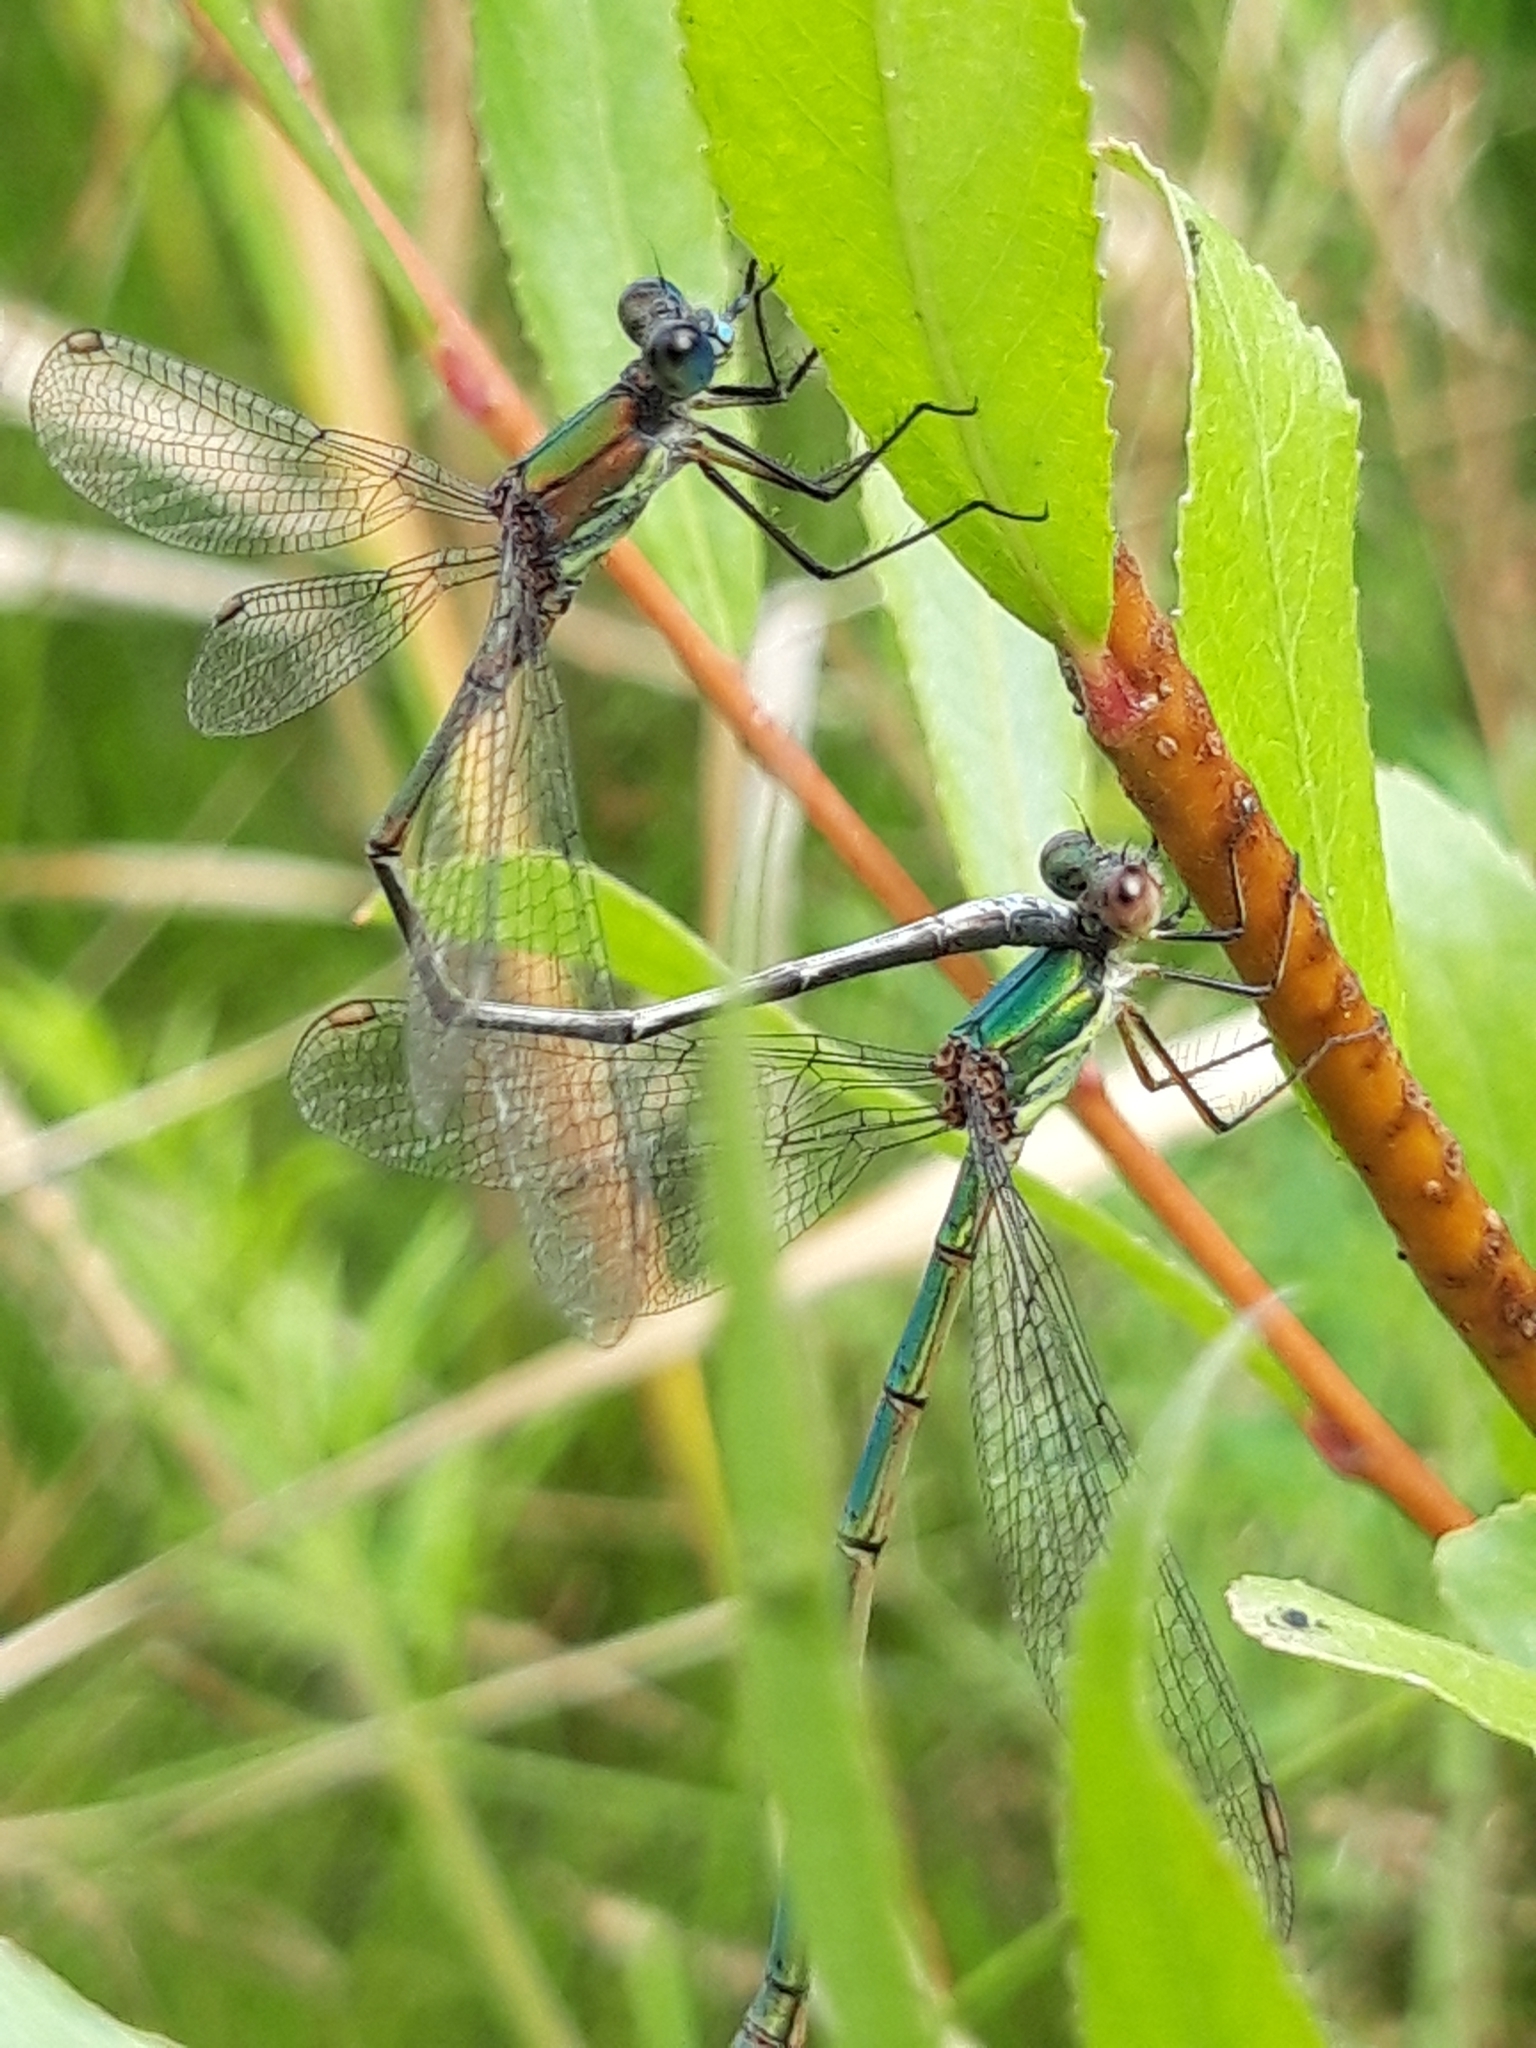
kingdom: Animalia
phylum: Arthropoda
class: Insecta
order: Odonata
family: Lestidae
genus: Chalcolestes
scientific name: Chalcolestes viridis
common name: Green emerald damselfly
